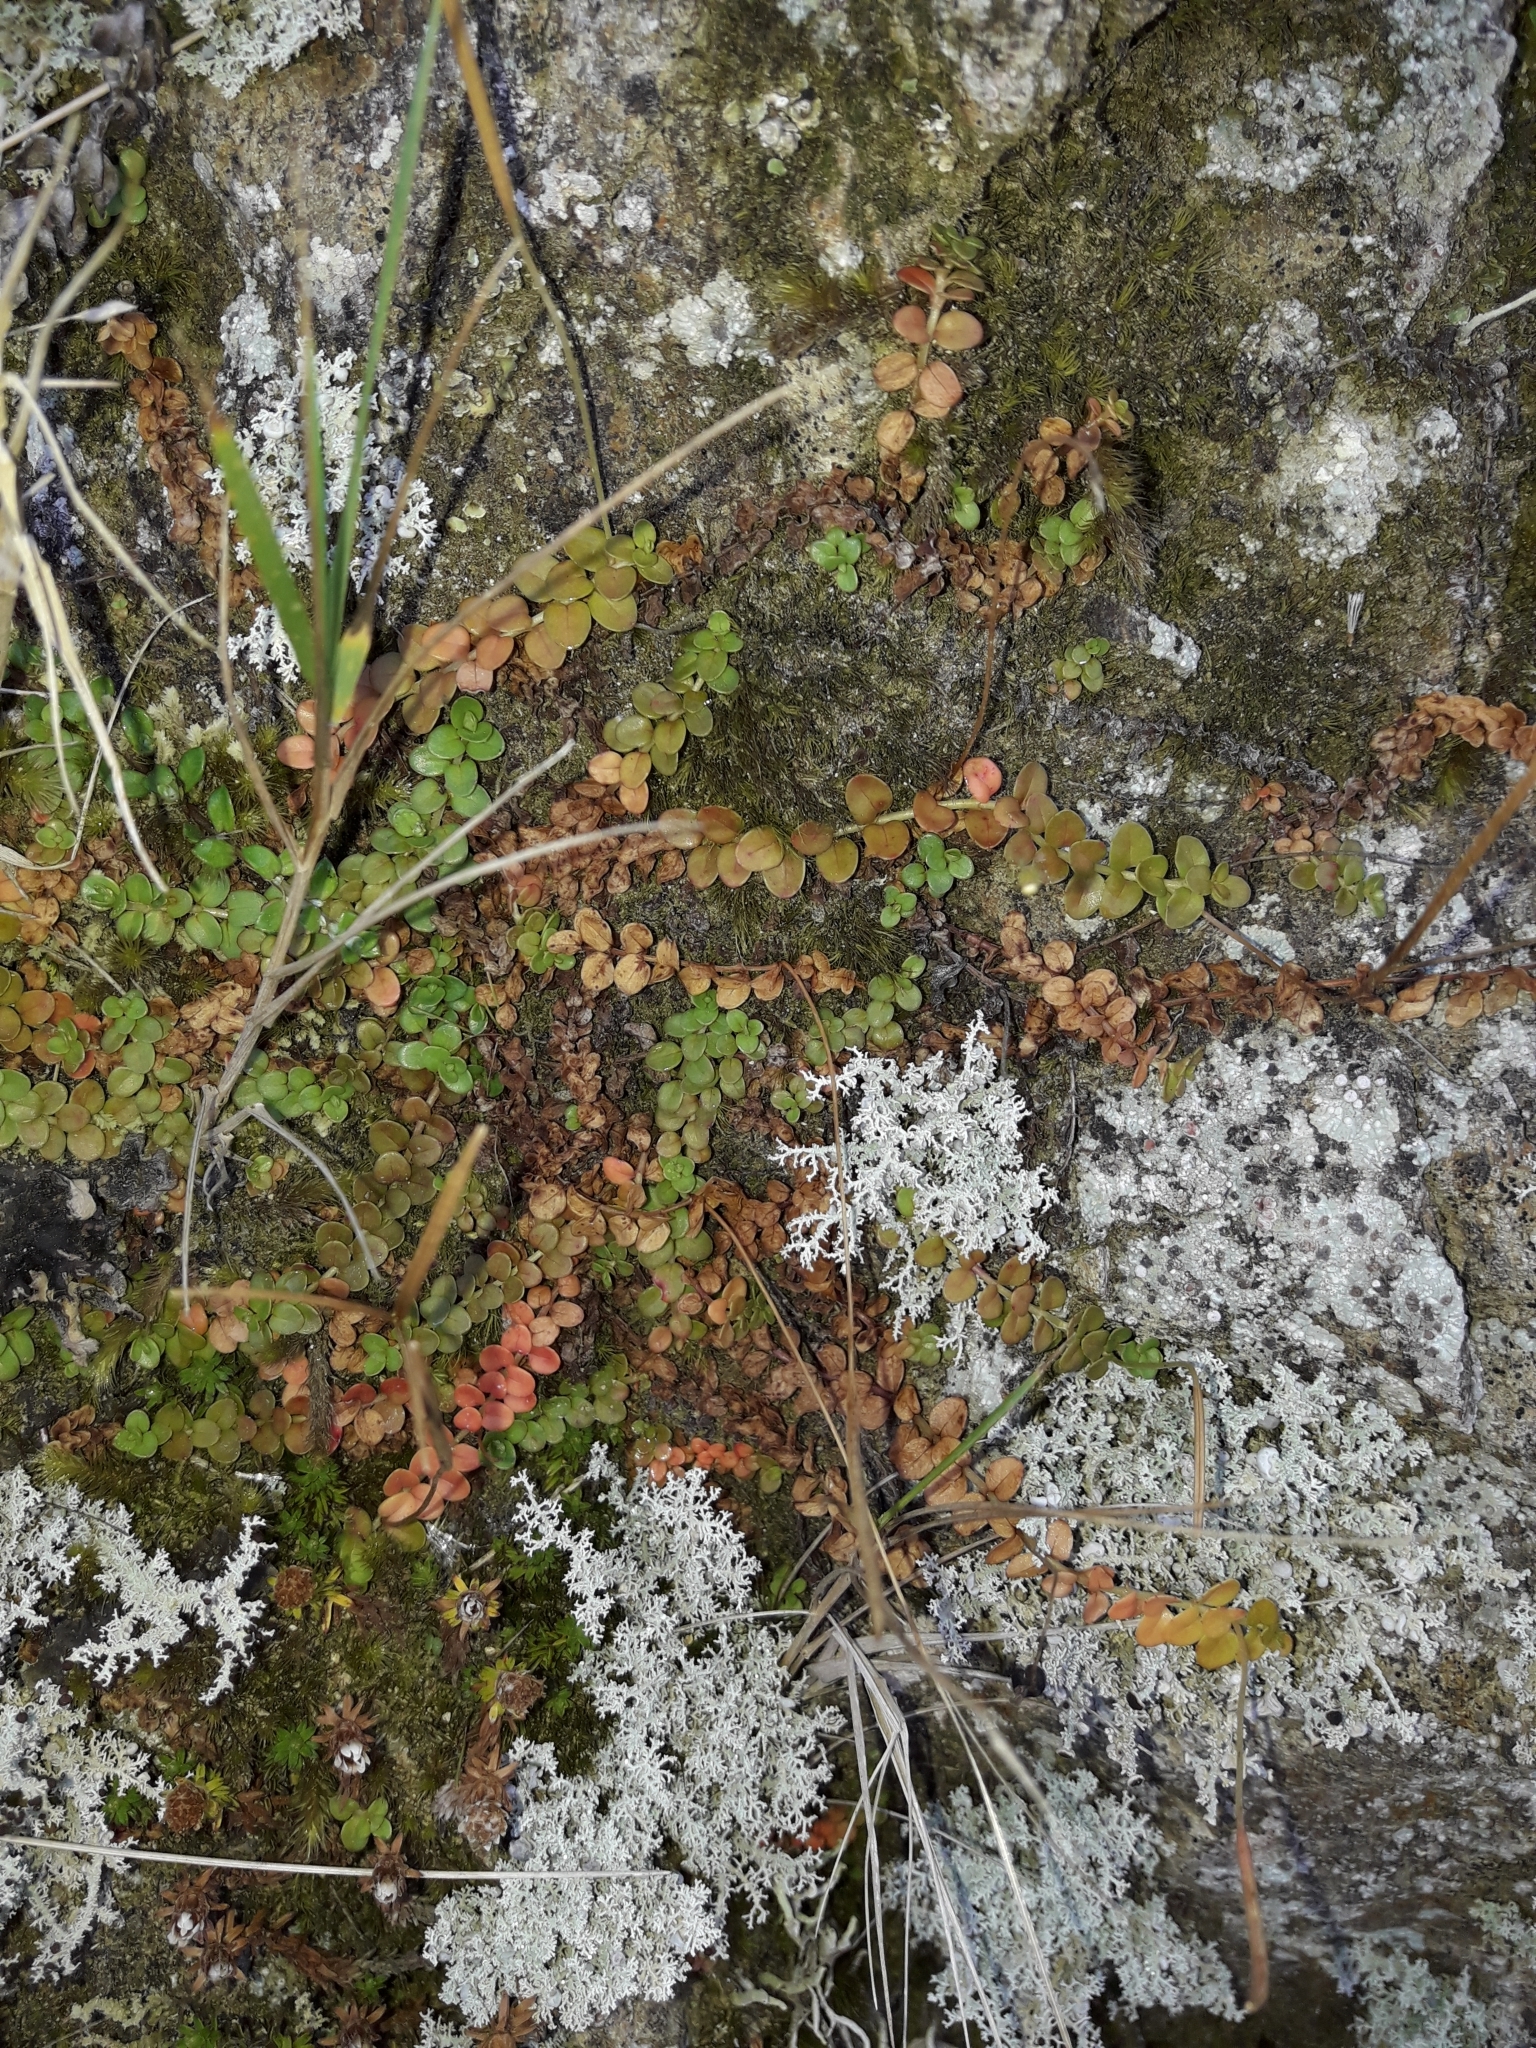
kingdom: Plantae
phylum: Tracheophyta
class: Magnoliopsida
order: Myrtales
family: Onagraceae
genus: Epilobium
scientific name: Epilobium brunnescens
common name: New zealand willowherb
